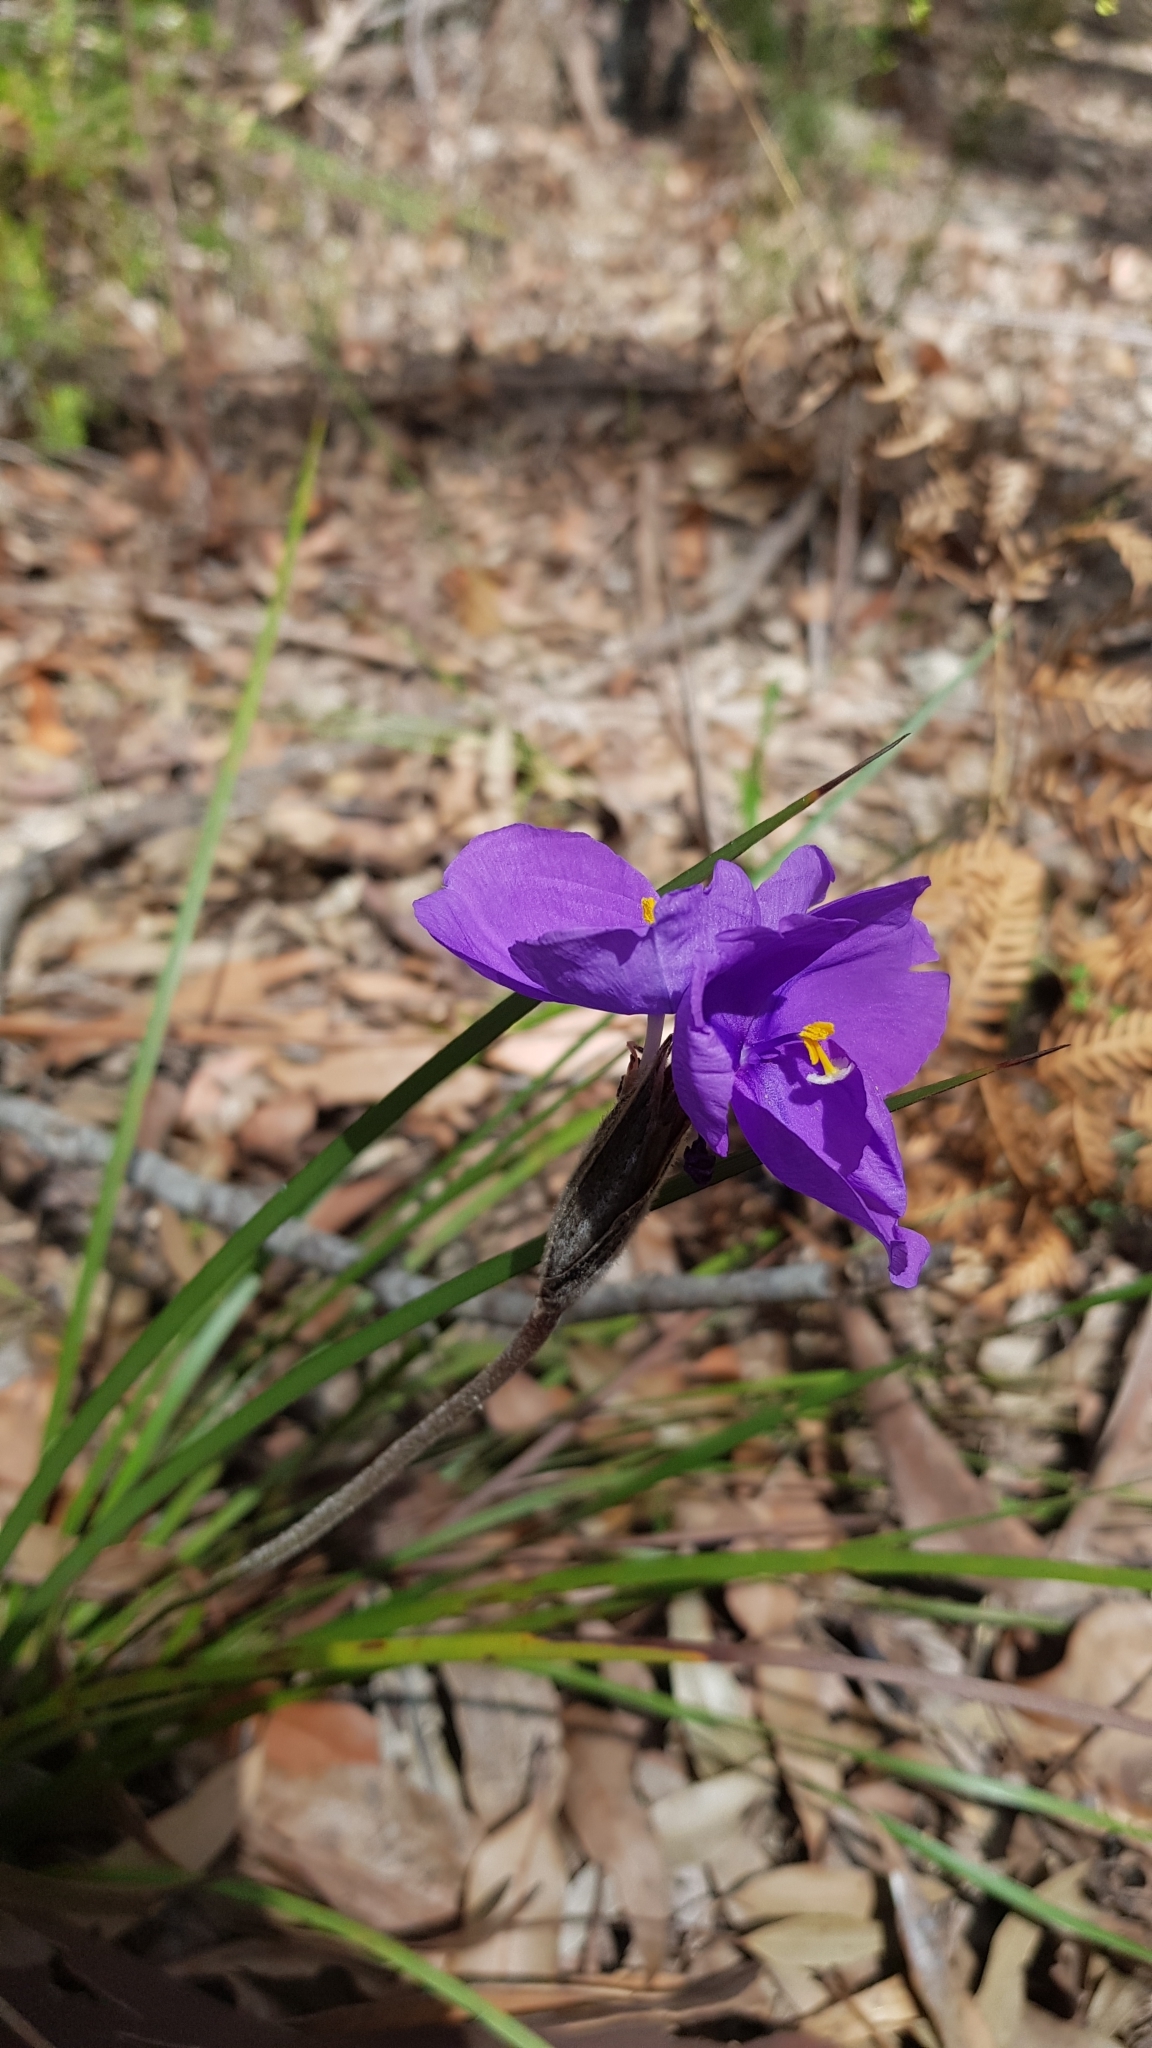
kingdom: Plantae
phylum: Tracheophyta
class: Liliopsida
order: Asparagales
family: Iridaceae
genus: Patersonia
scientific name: Patersonia sericea
